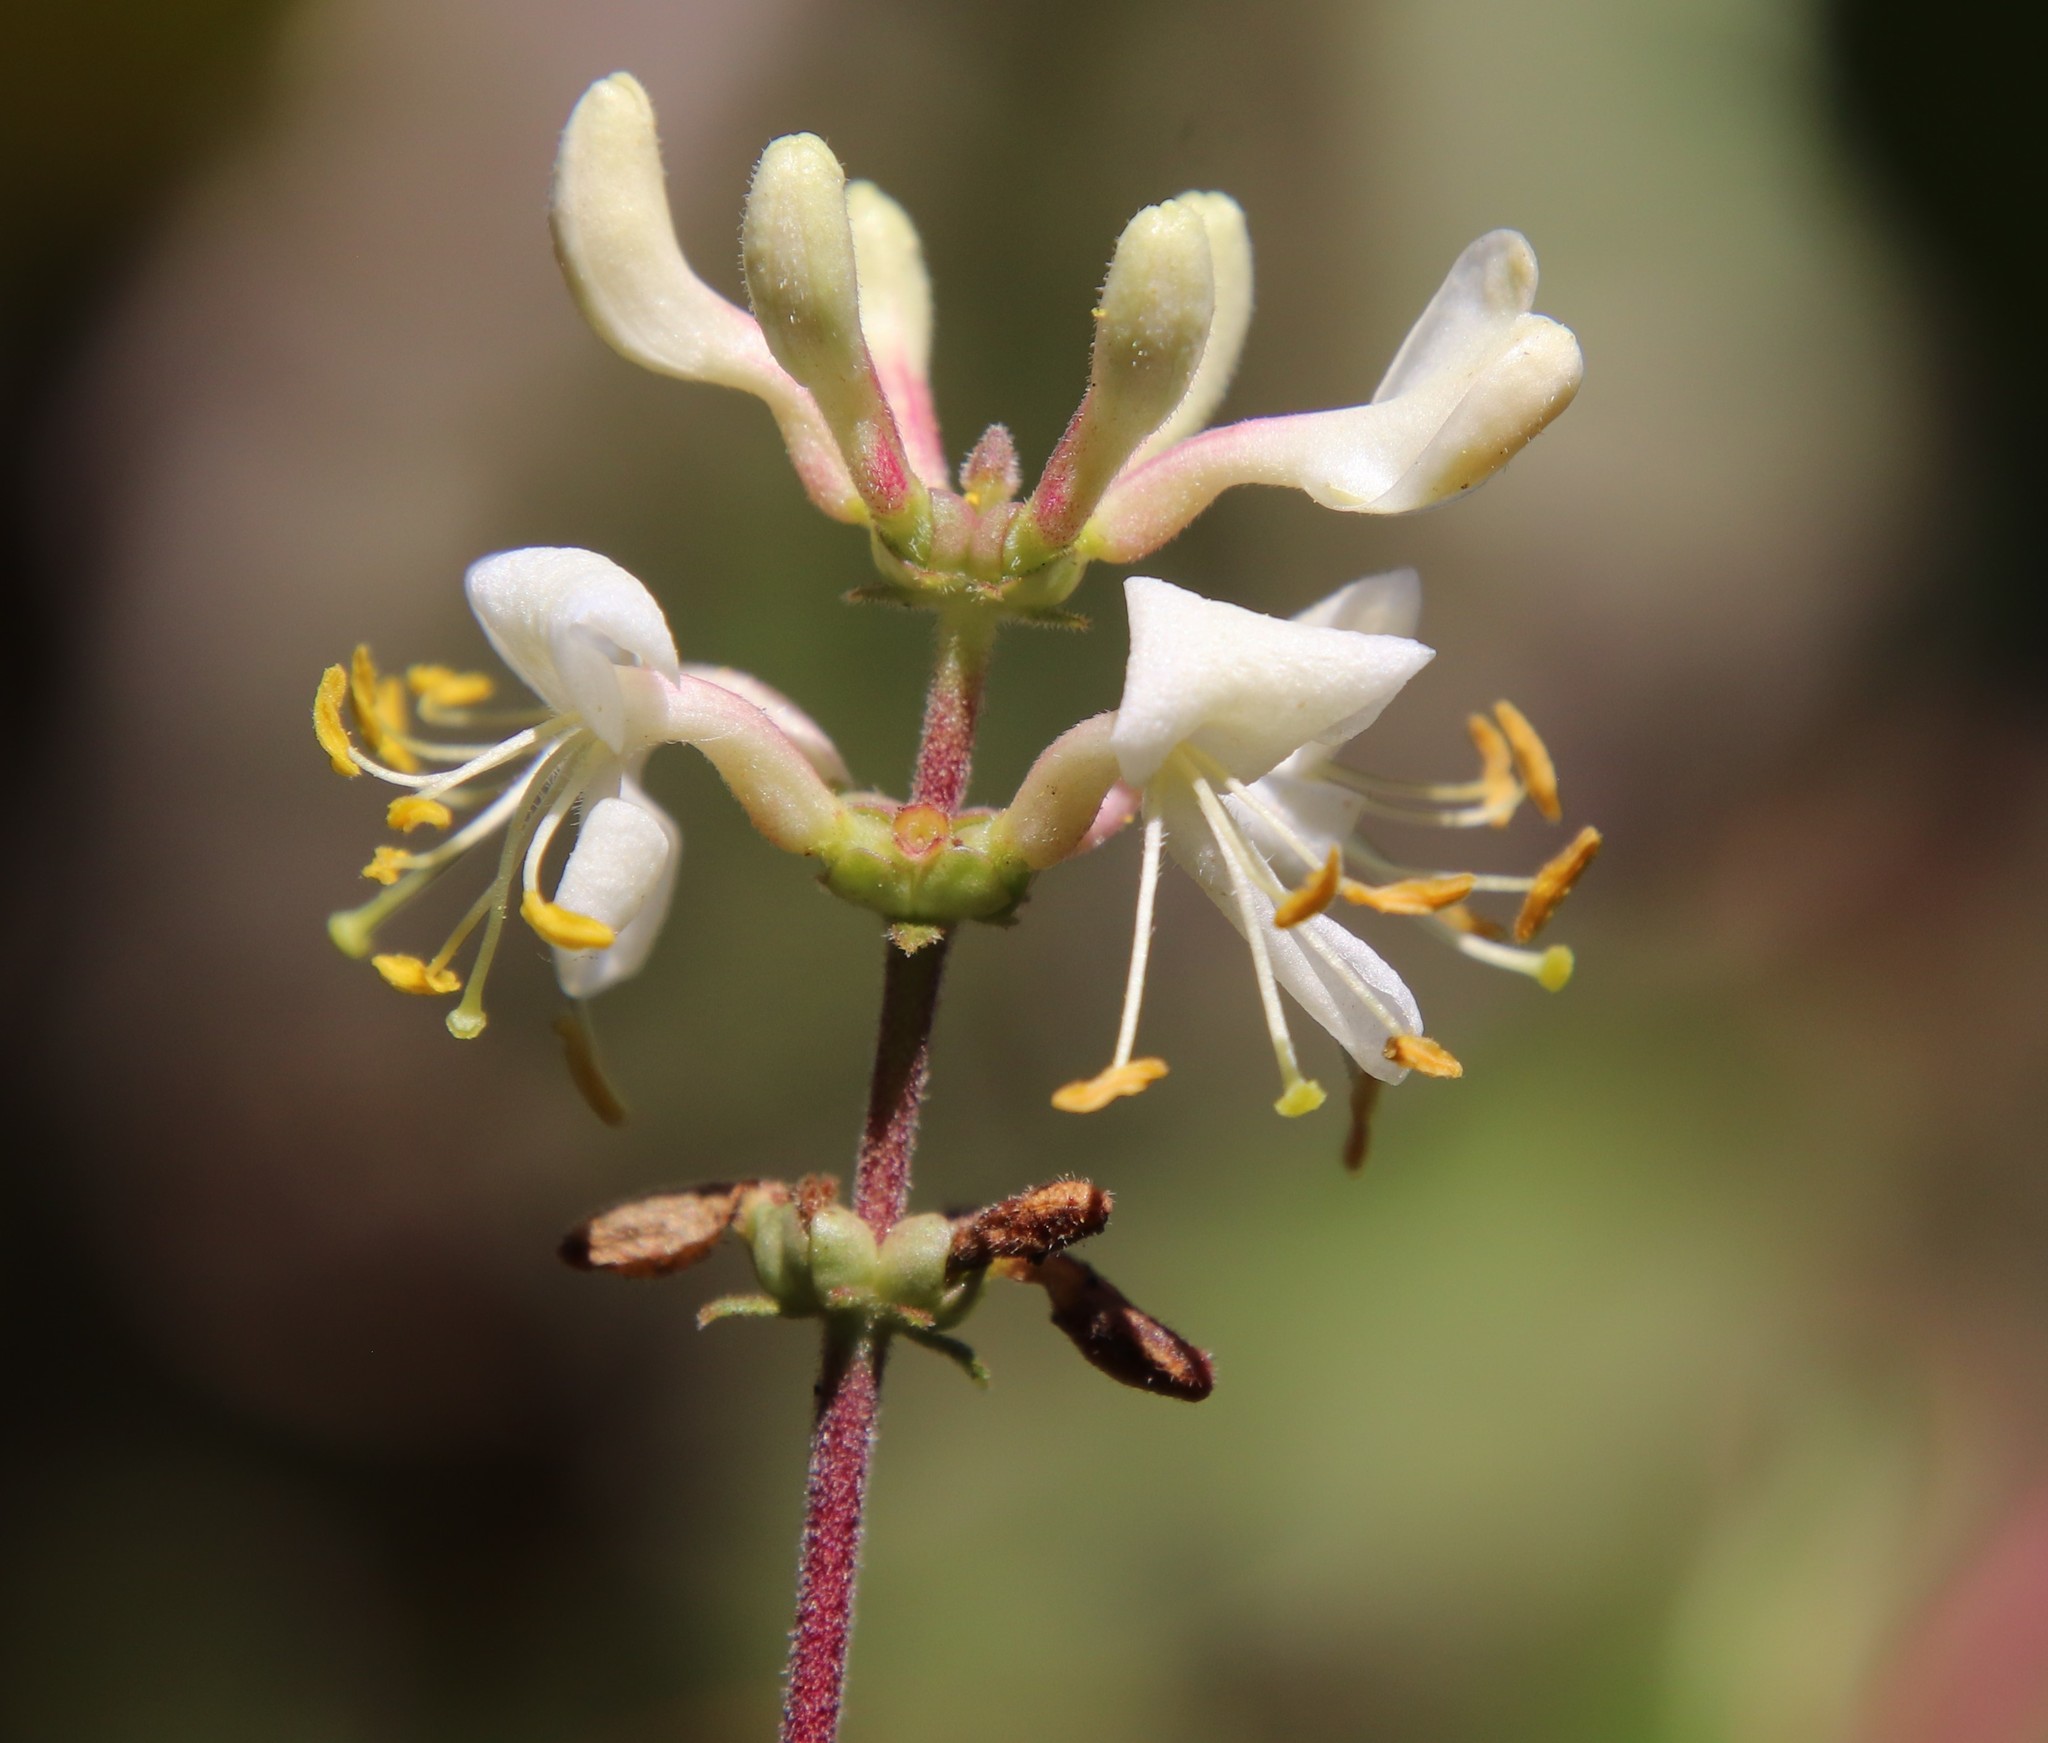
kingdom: Plantae
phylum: Tracheophyta
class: Magnoliopsida
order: Dipsacales
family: Caprifoliaceae
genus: Lonicera
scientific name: Lonicera subspicata
